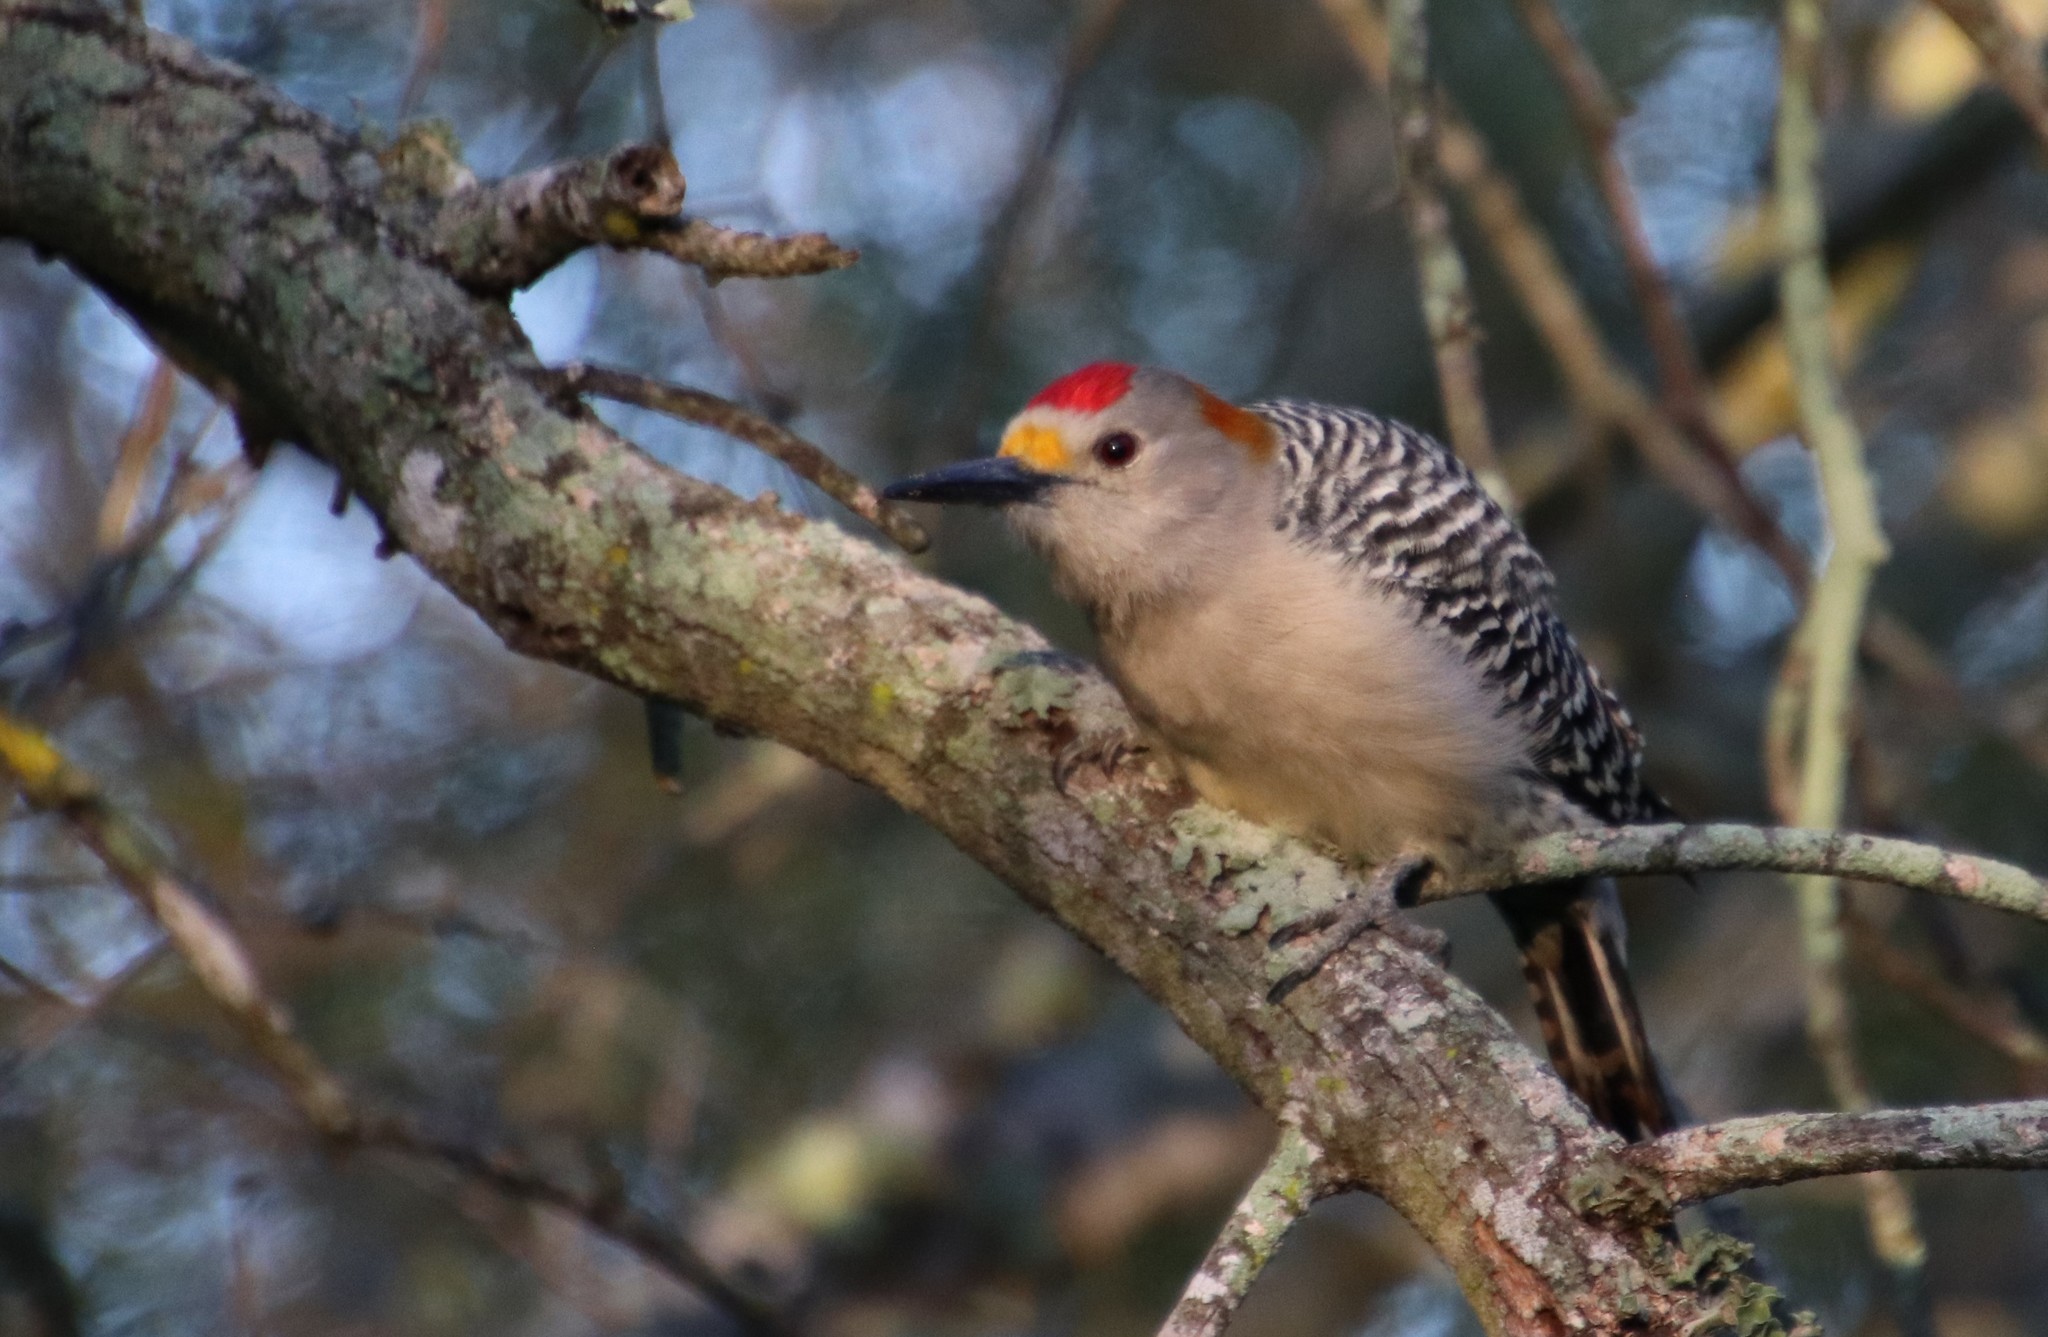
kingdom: Animalia
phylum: Chordata
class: Aves
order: Piciformes
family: Picidae
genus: Melanerpes
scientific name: Melanerpes aurifrons
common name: Golden-fronted woodpecker
